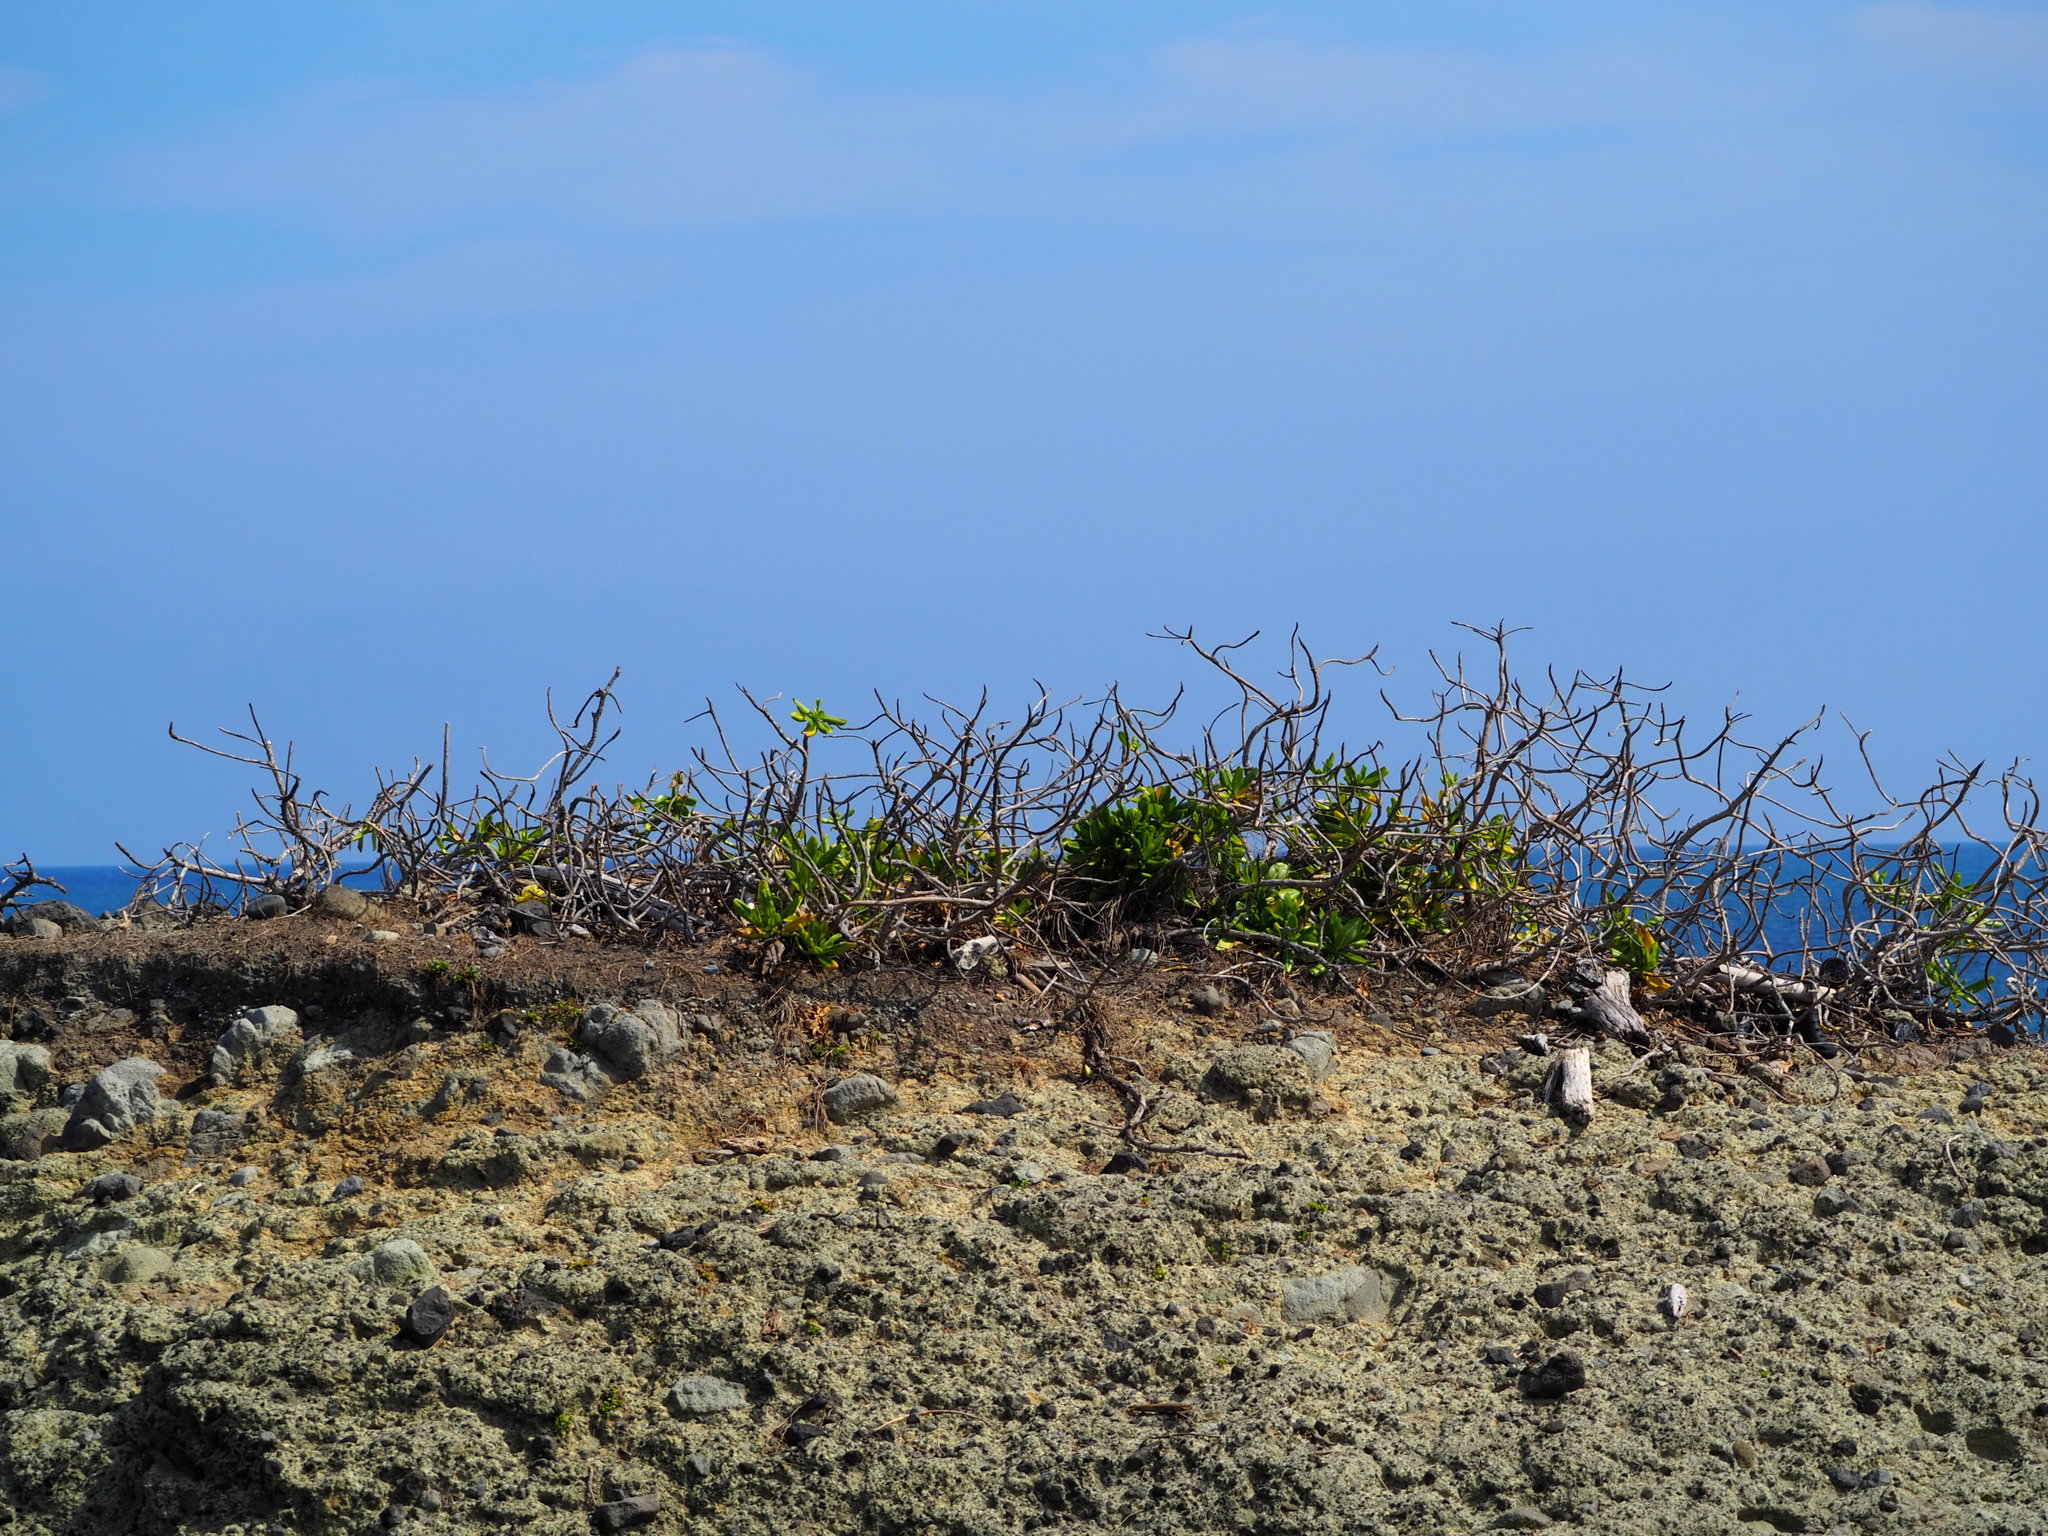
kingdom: Plantae
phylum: Tracheophyta
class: Magnoliopsida
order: Asterales
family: Goodeniaceae
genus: Scaevola
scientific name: Scaevola taccada
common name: Sea lettucetree
